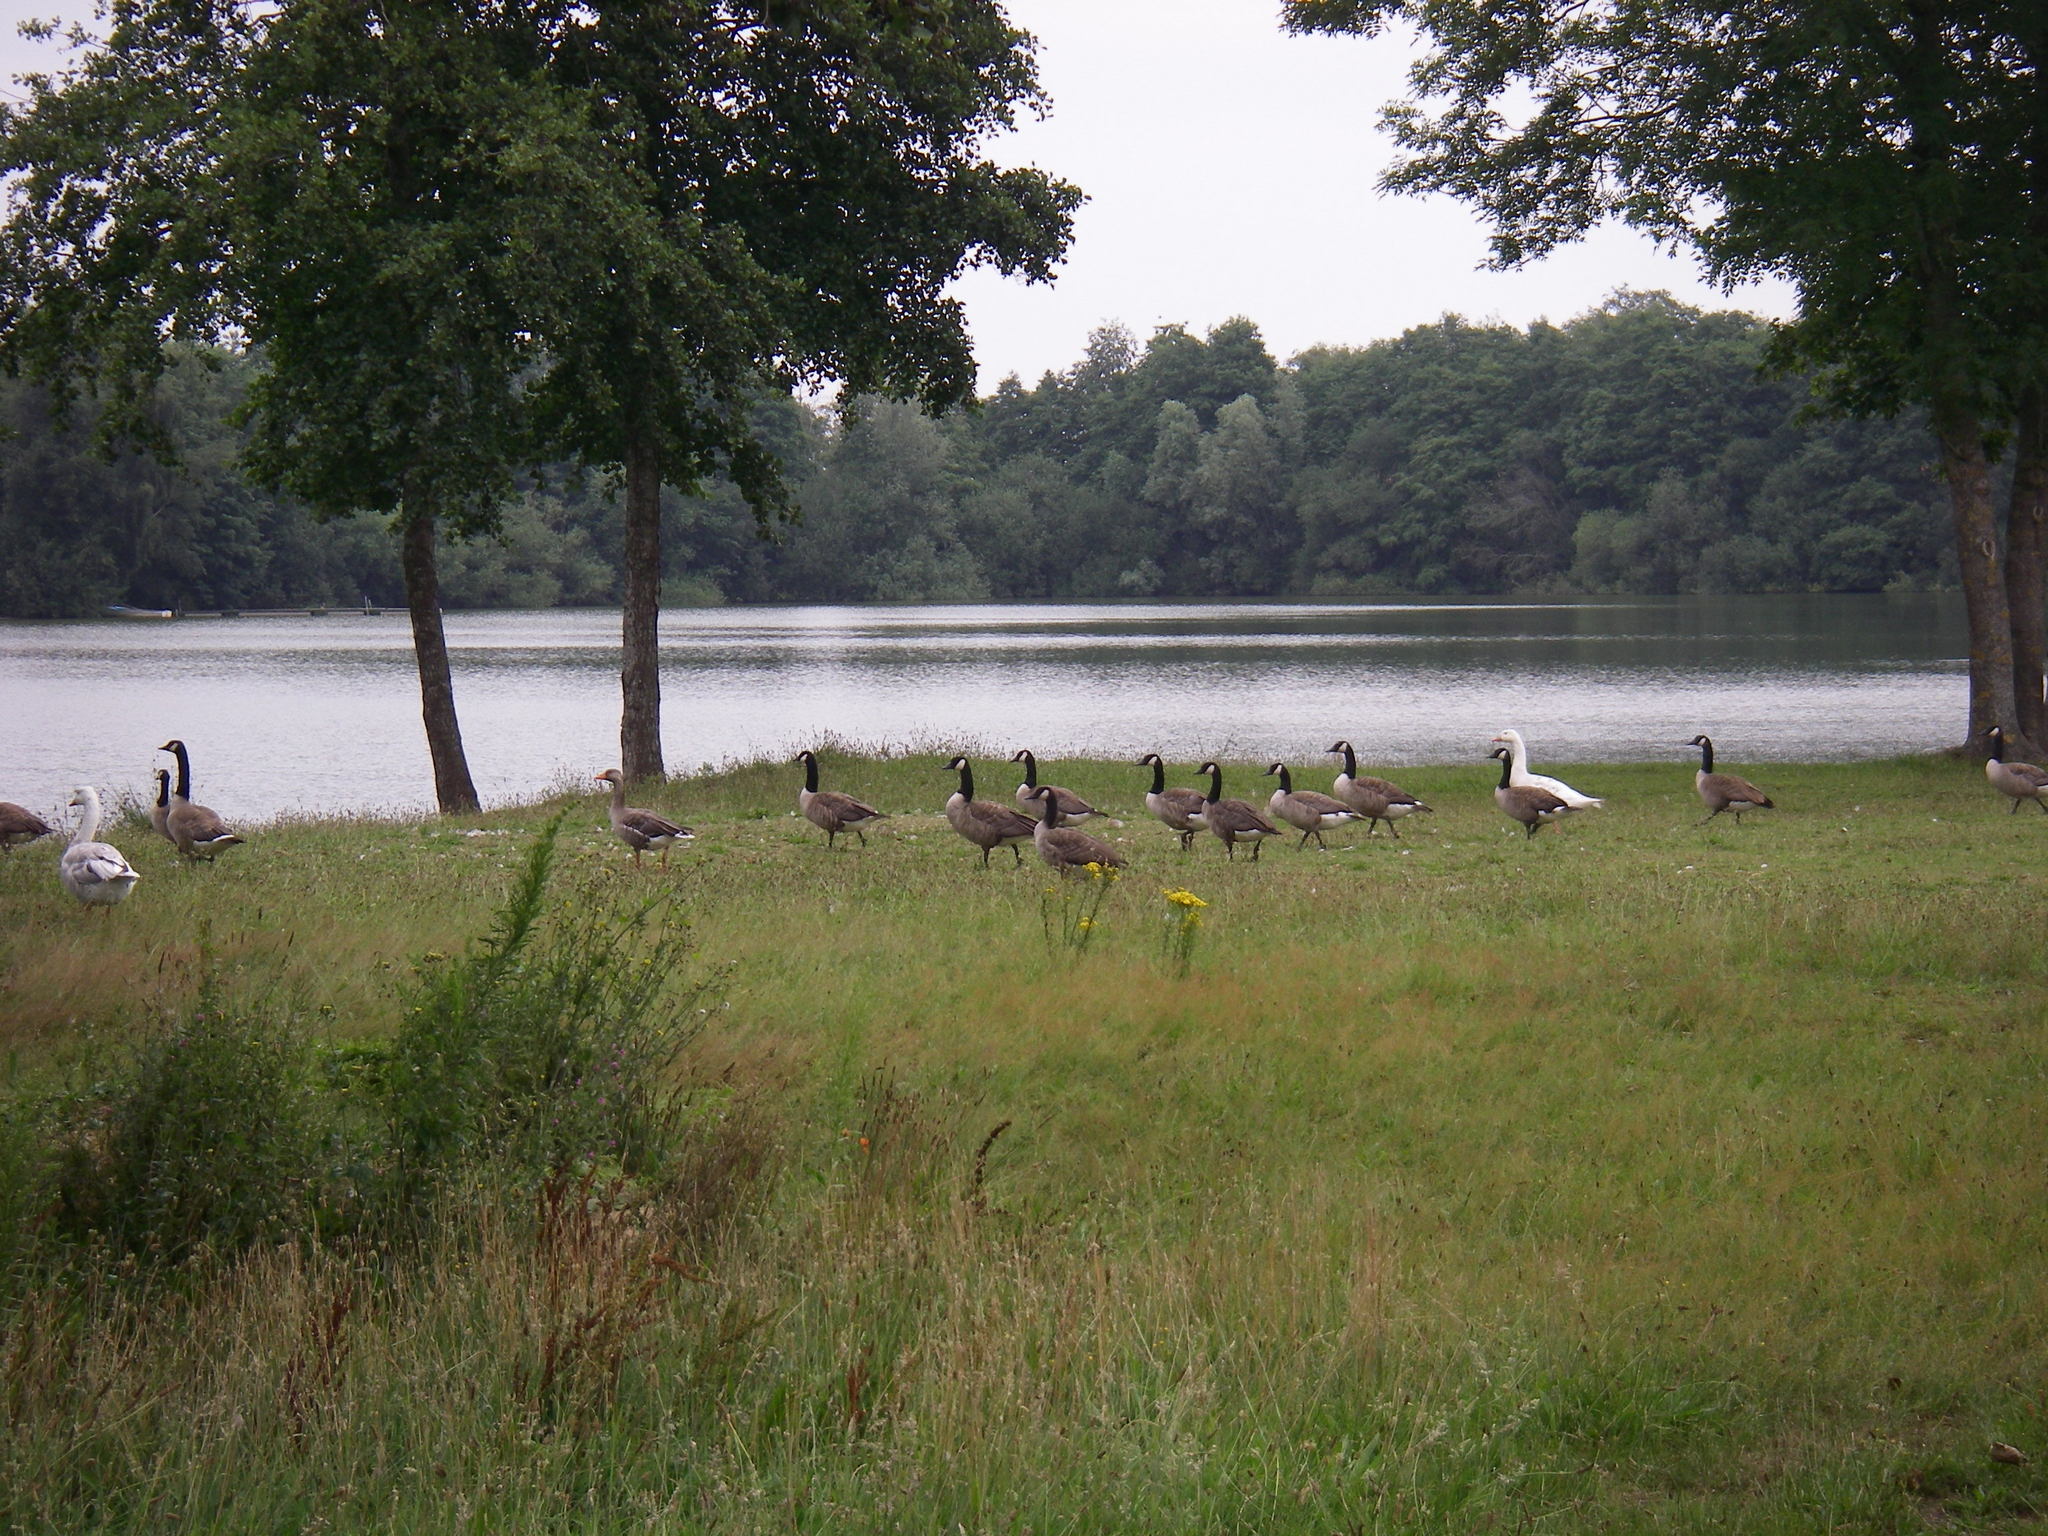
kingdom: Animalia
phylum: Chordata
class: Aves
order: Anseriformes
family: Anatidae
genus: Branta
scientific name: Branta canadensis
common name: Canada goose
